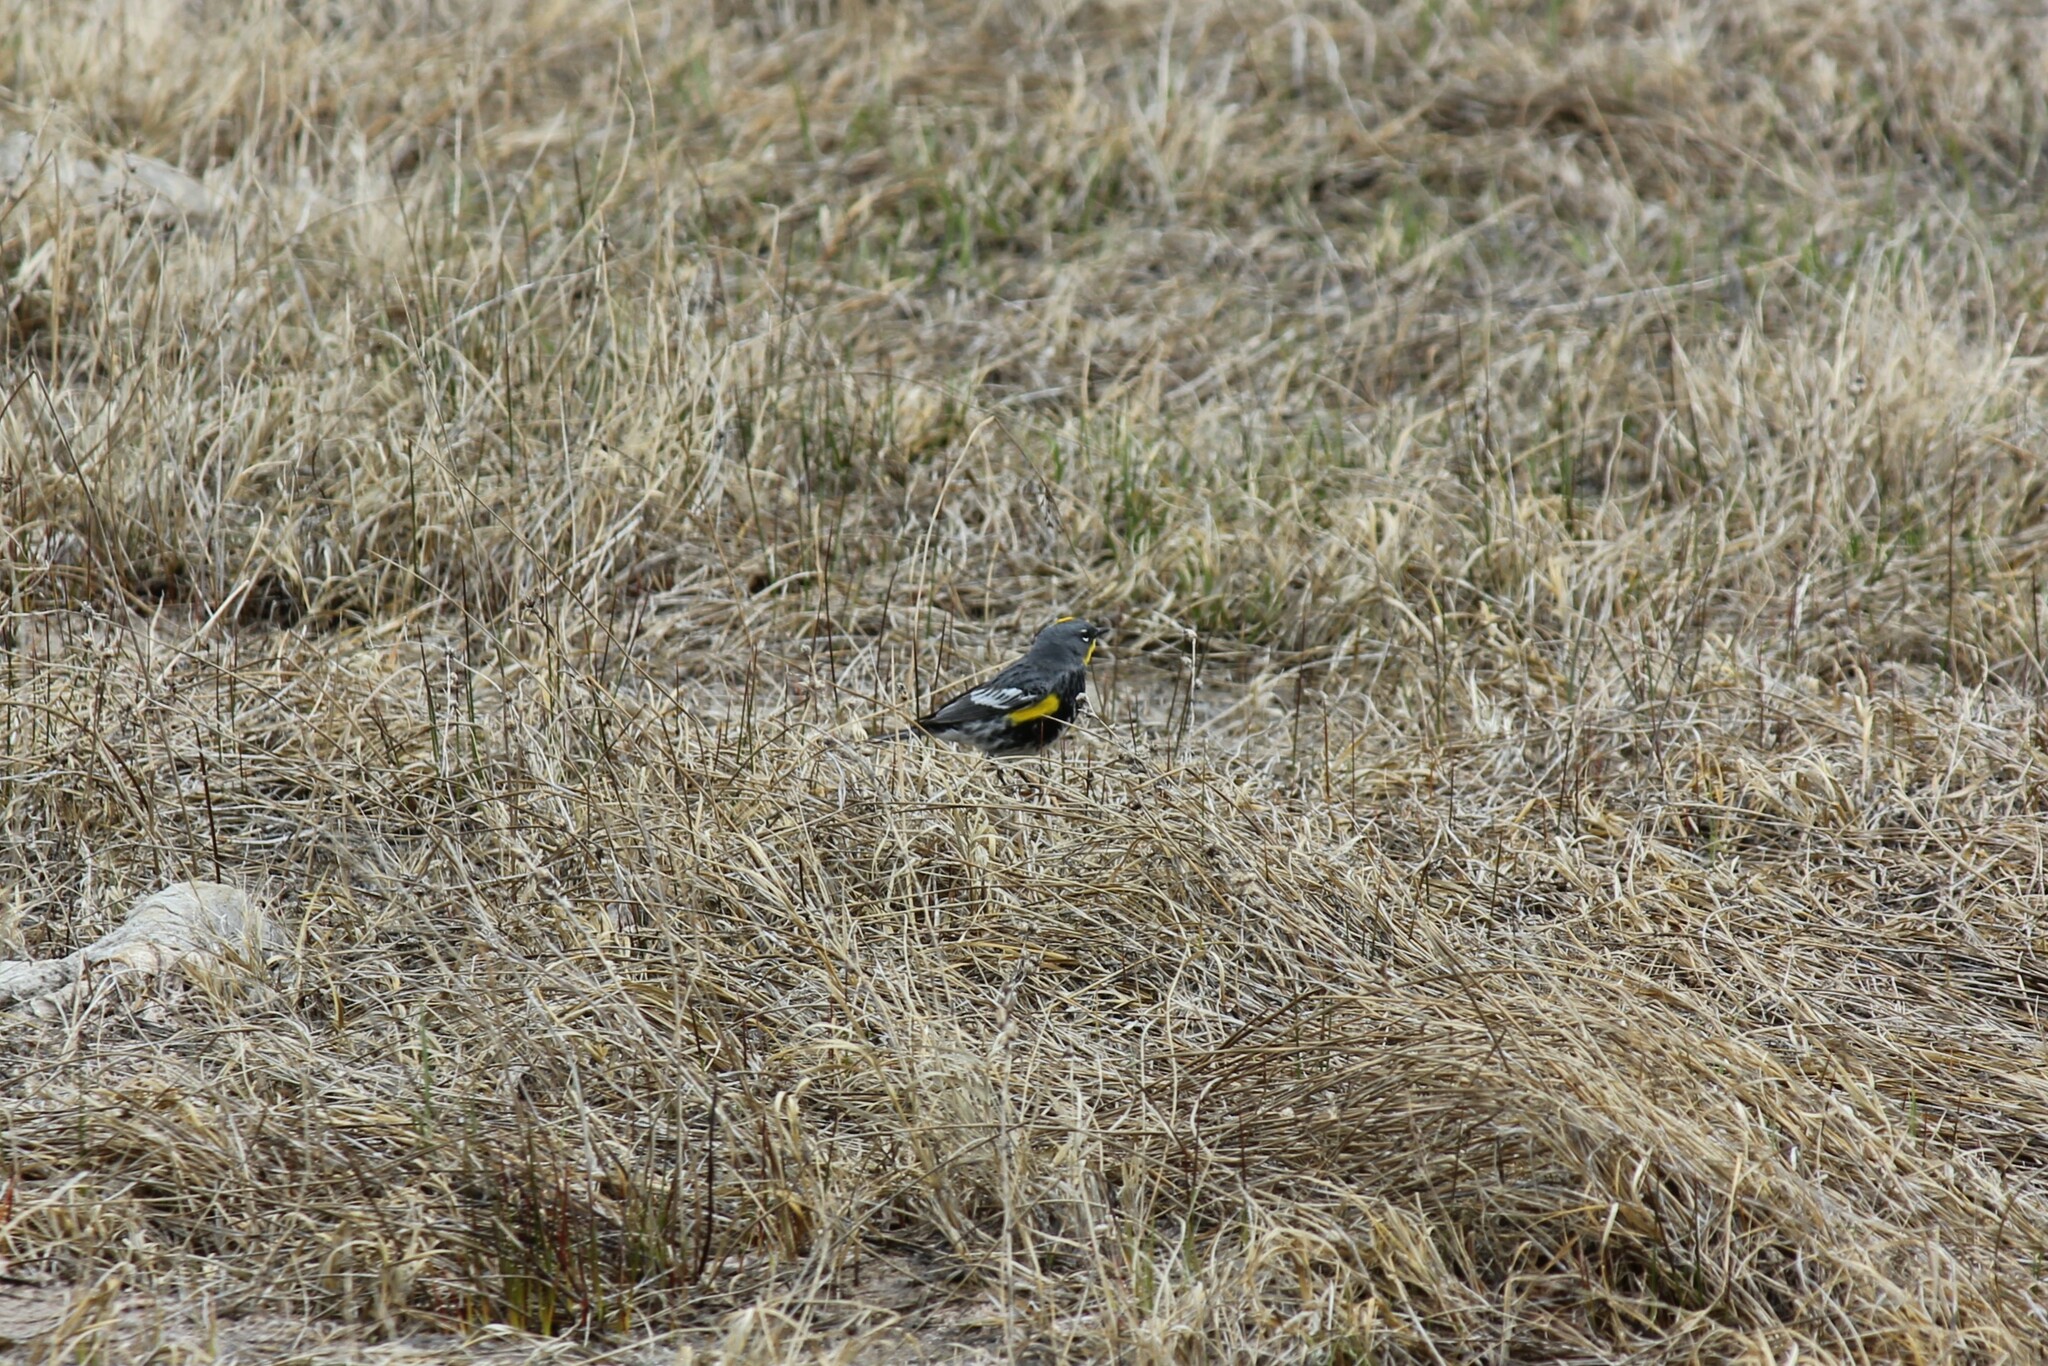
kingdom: Animalia
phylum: Chordata
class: Aves
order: Passeriformes
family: Parulidae
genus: Setophaga
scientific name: Setophaga coronata
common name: Myrtle warbler
